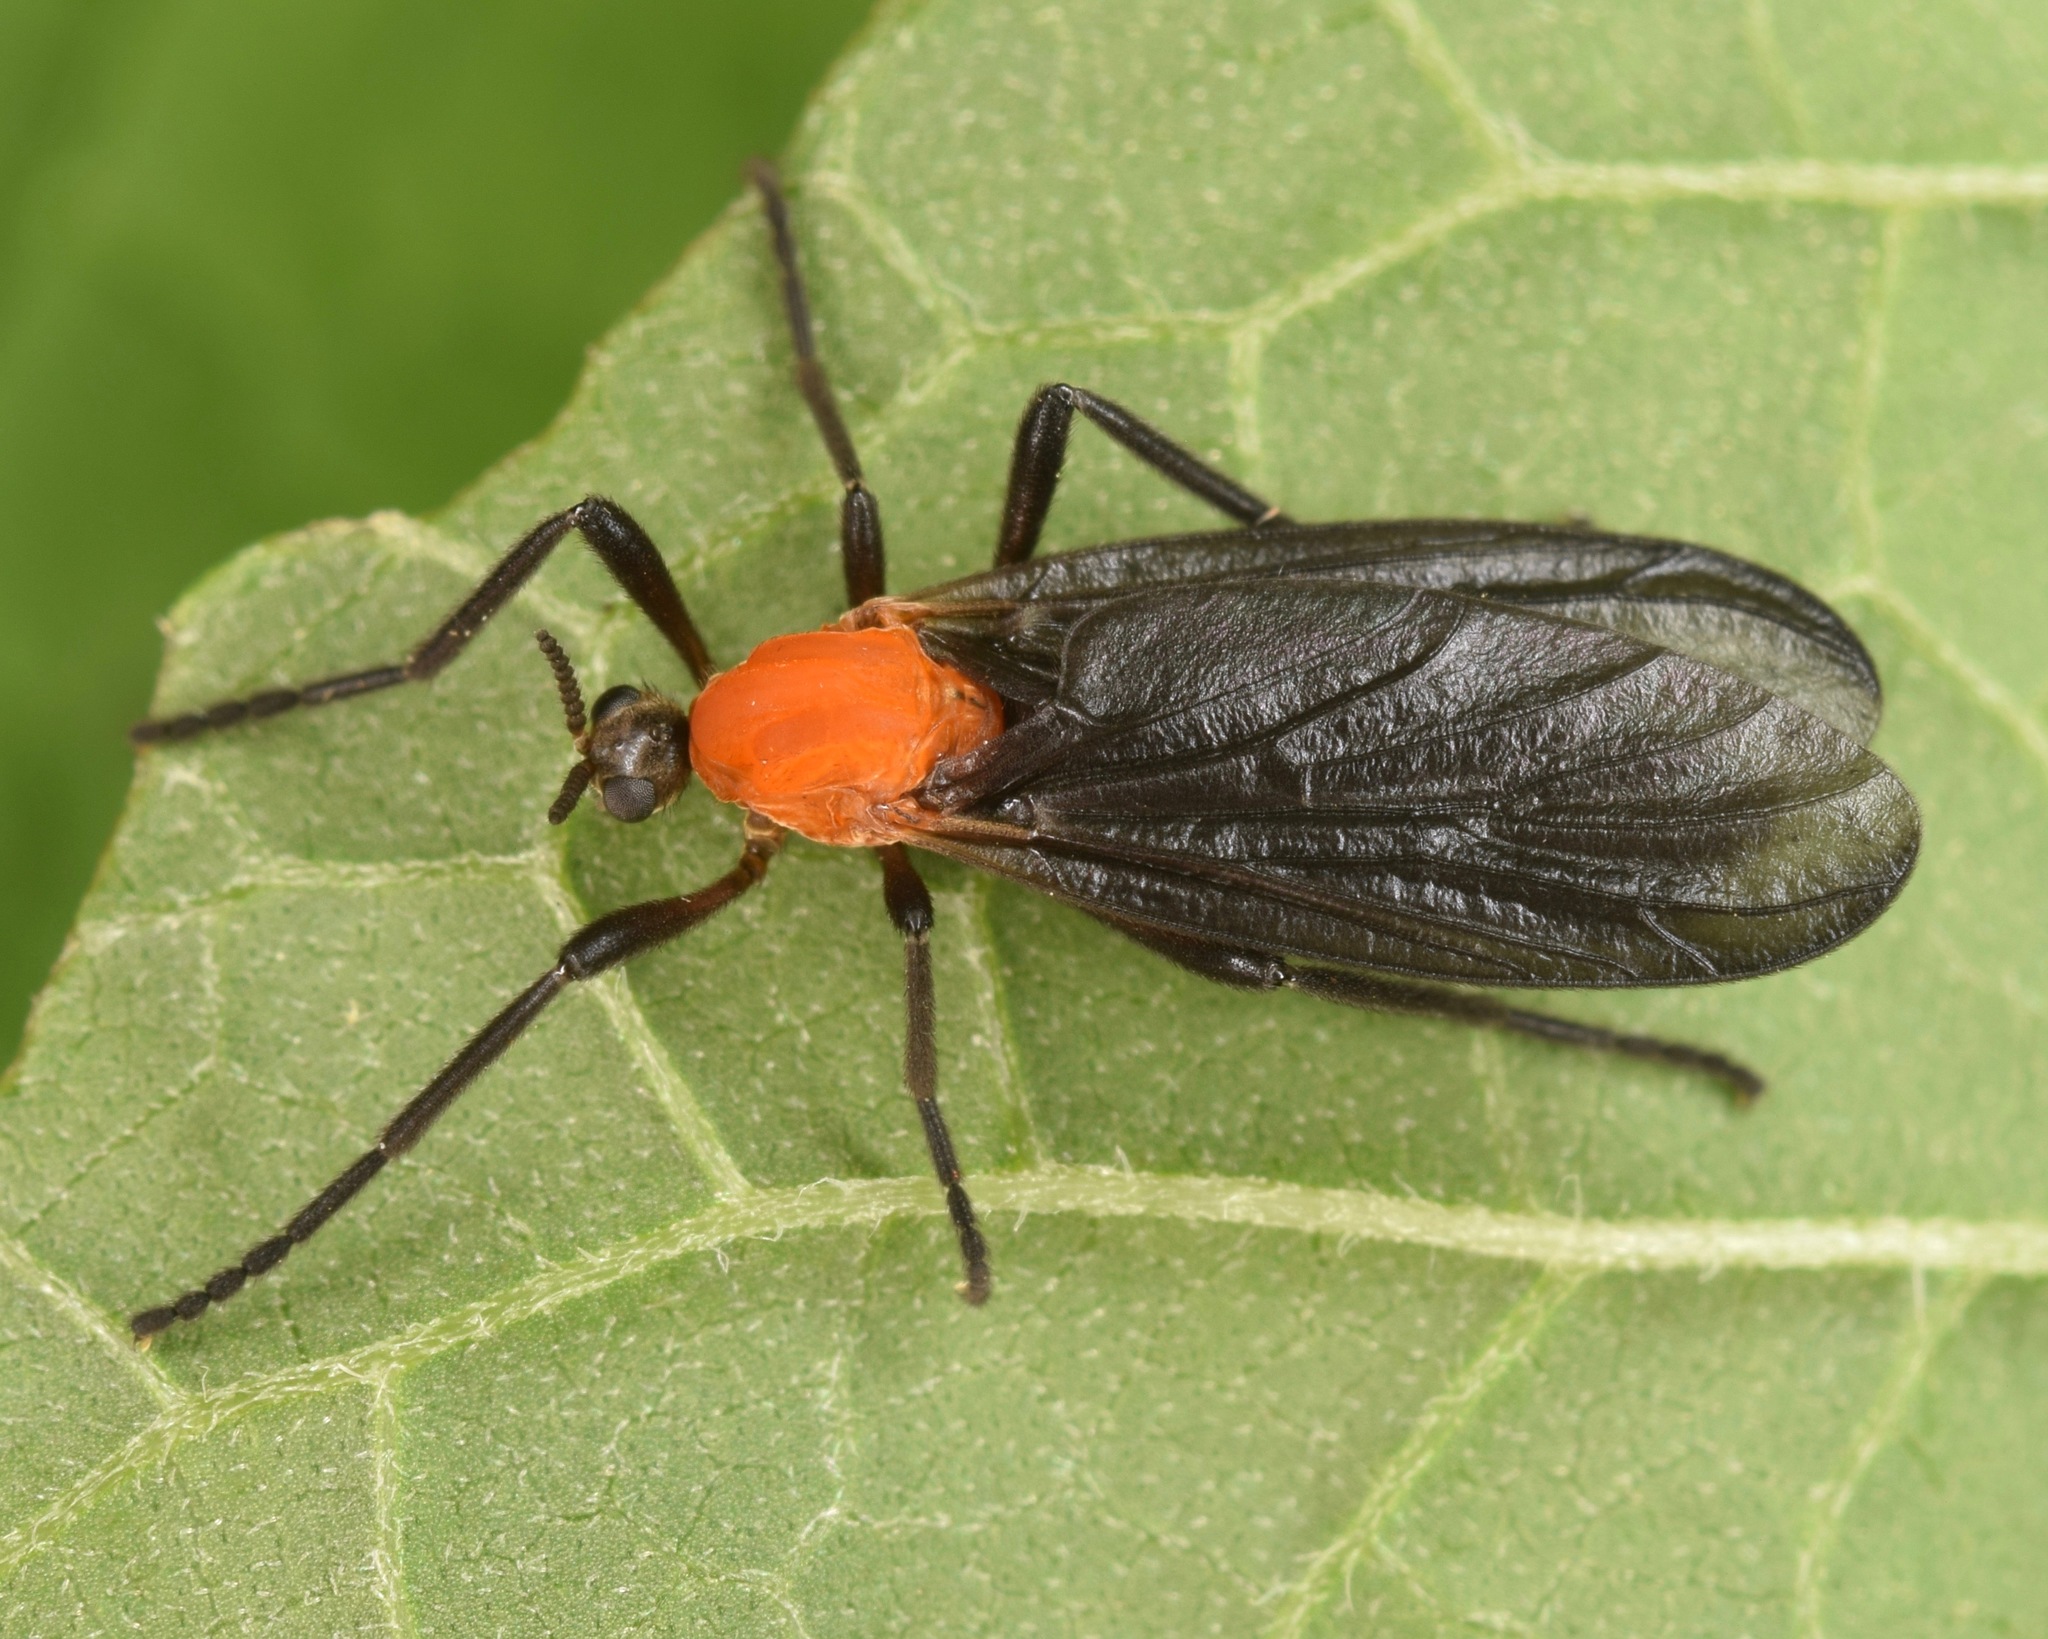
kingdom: Animalia
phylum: Arthropoda
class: Insecta
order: Diptera
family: Bibionidae
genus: Plecia
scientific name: Plecia americana
